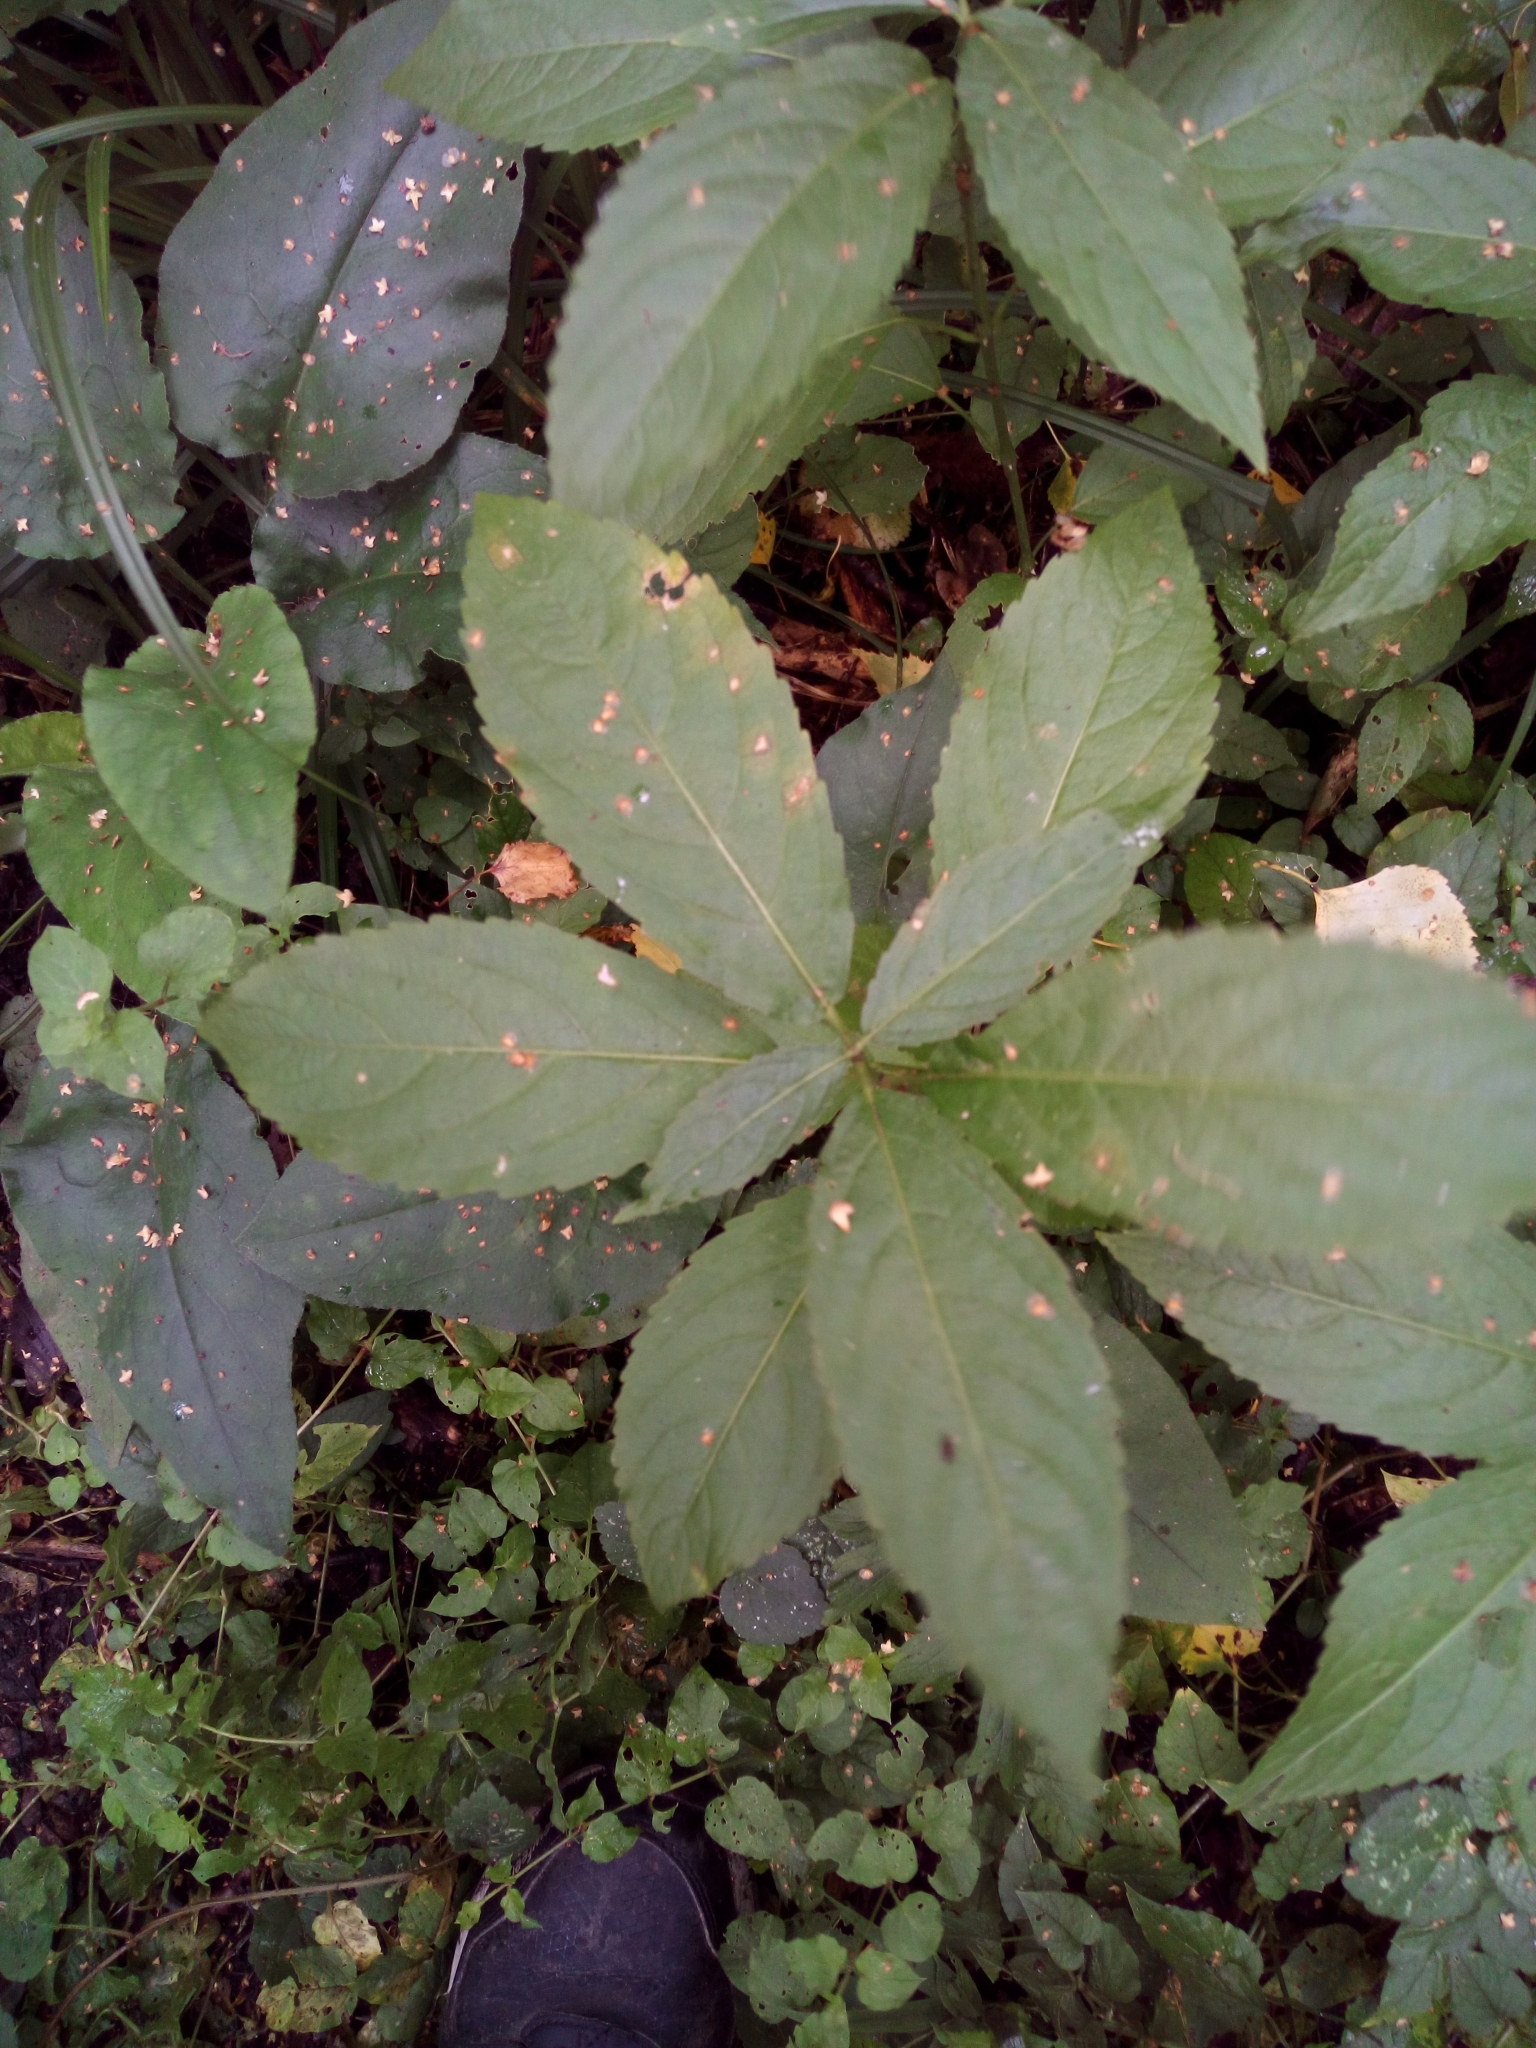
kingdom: Plantae
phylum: Tracheophyta
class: Magnoliopsida
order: Malpighiales
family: Euphorbiaceae
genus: Mercurialis
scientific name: Mercurialis perennis
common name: Dog mercury
